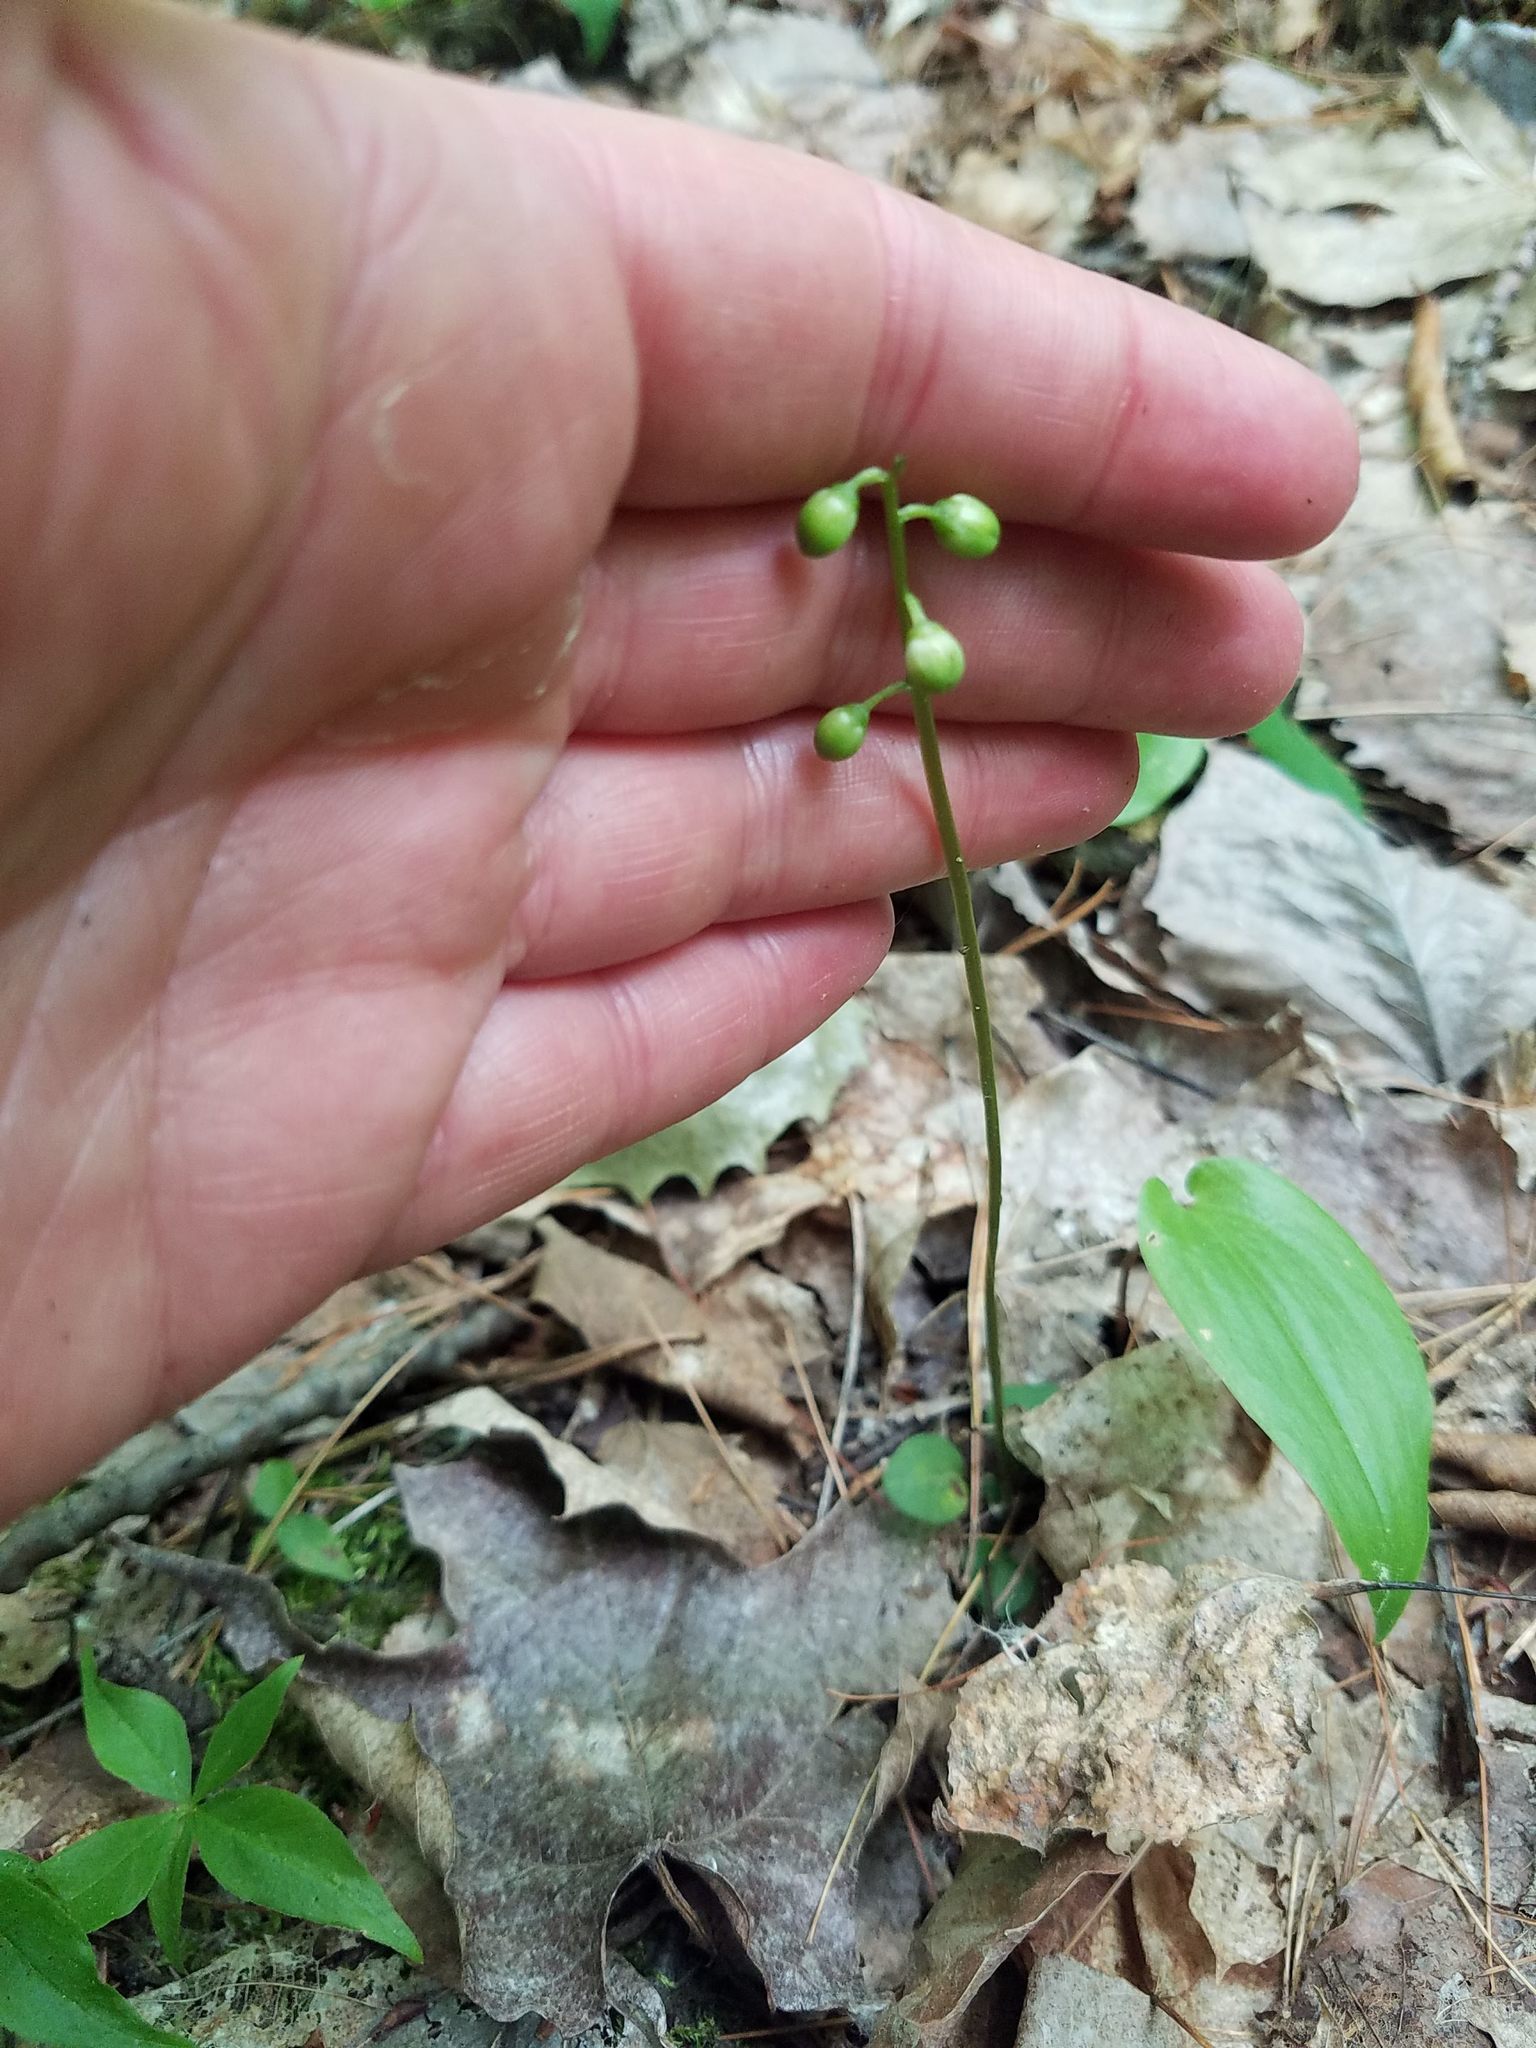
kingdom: Plantae
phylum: Tracheophyta
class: Magnoliopsida
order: Ericales
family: Ericaceae
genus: Pyrola
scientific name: Pyrola chlorantha
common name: Green wintergreen
